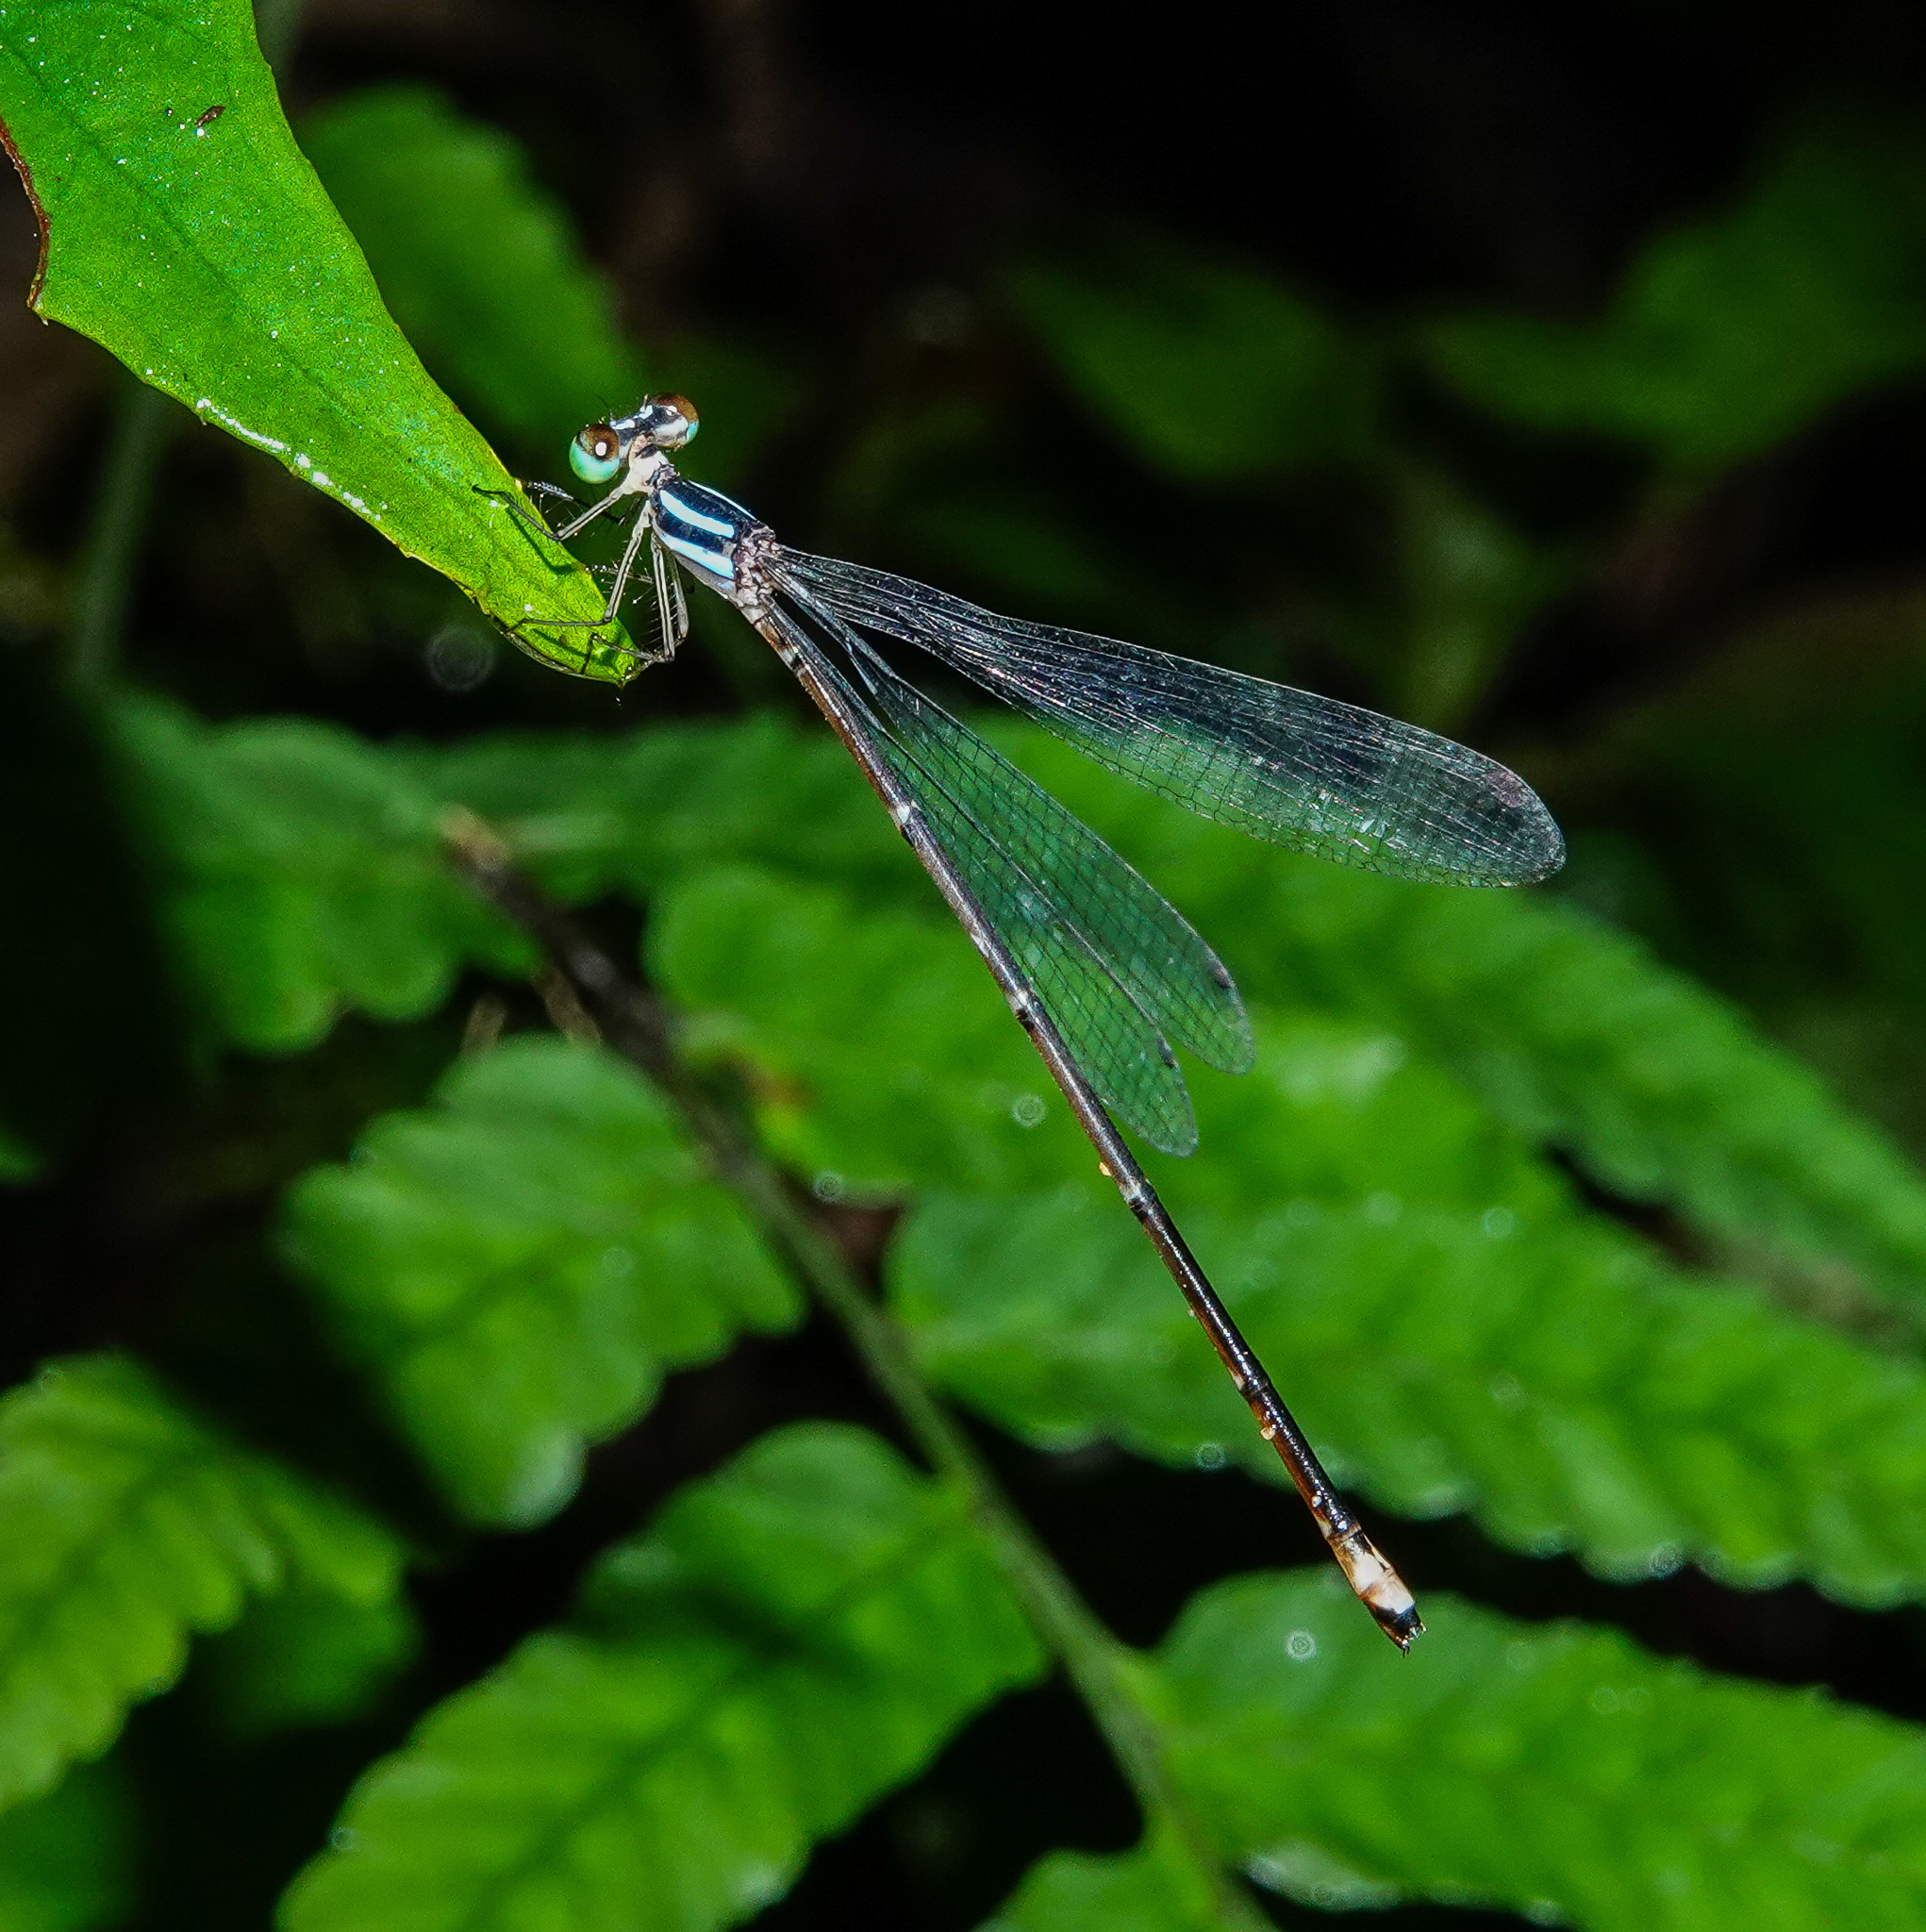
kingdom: Animalia
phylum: Arthropoda
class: Insecta
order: Odonata
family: Platycnemididae
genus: Coeliccia
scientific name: Coeliccia bimaculata
